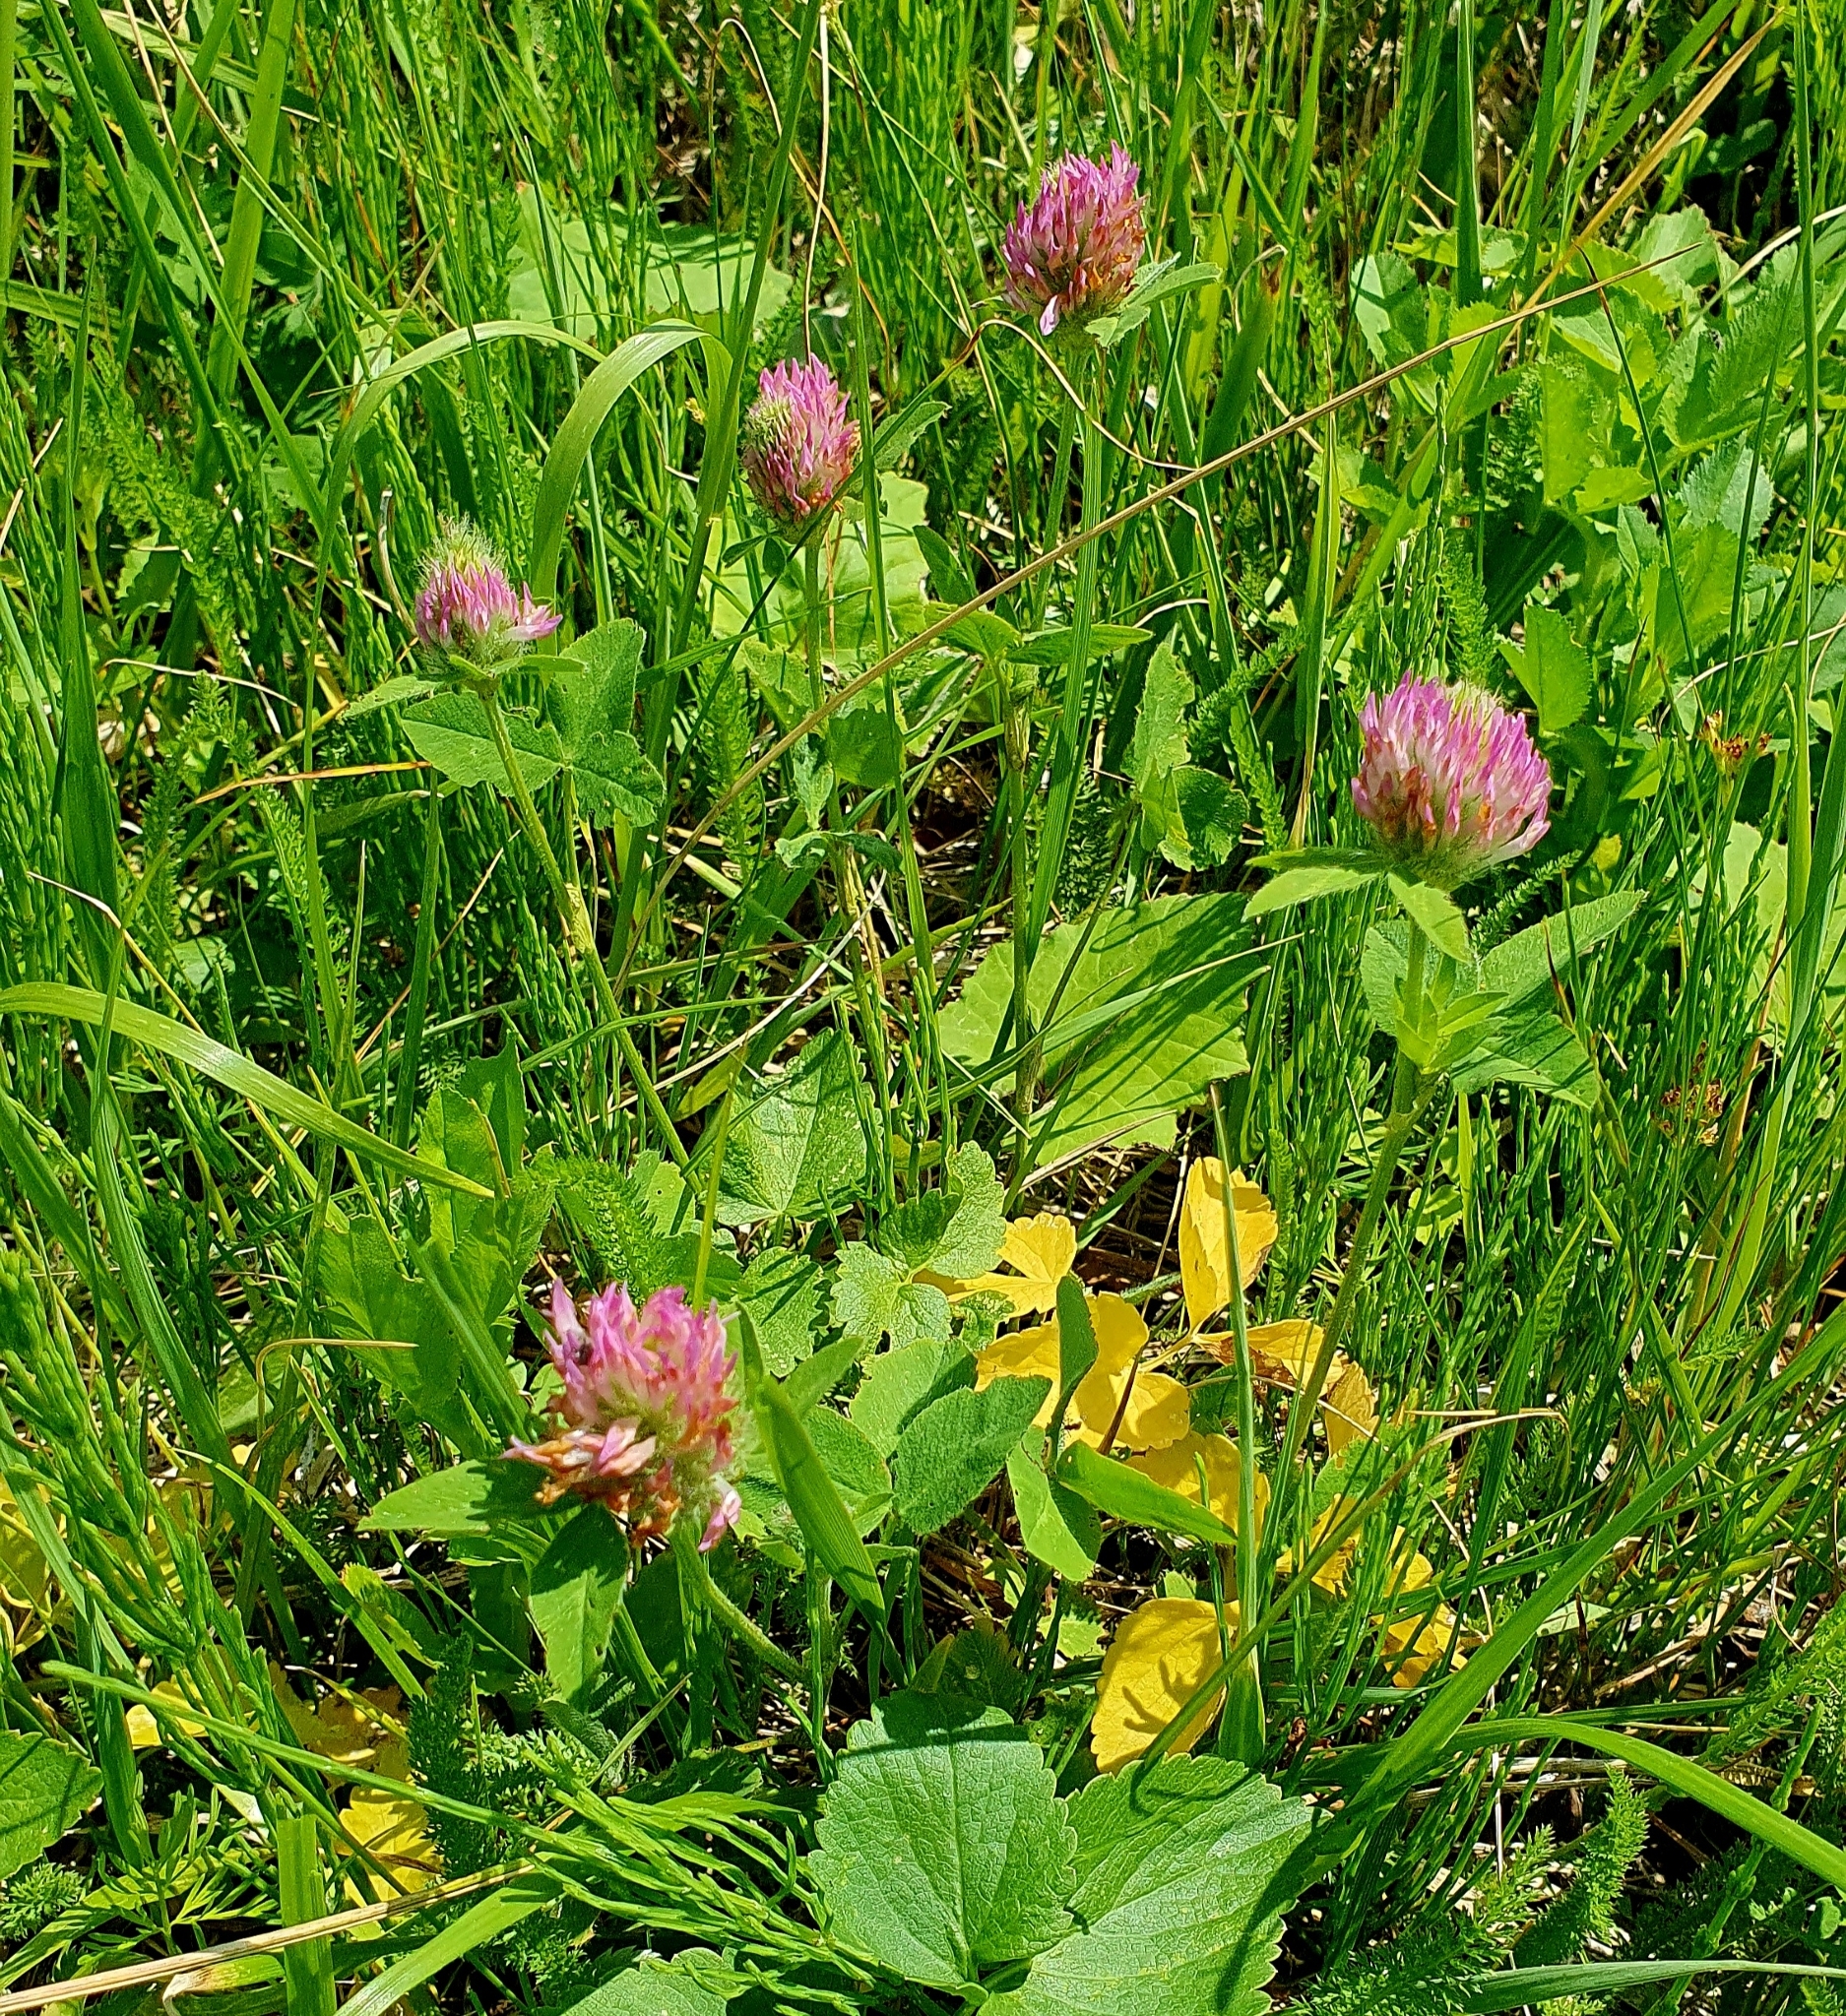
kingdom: Plantae
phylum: Tracheophyta
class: Magnoliopsida
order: Fabales
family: Fabaceae
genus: Trifolium
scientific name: Trifolium pratense
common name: Red clover
